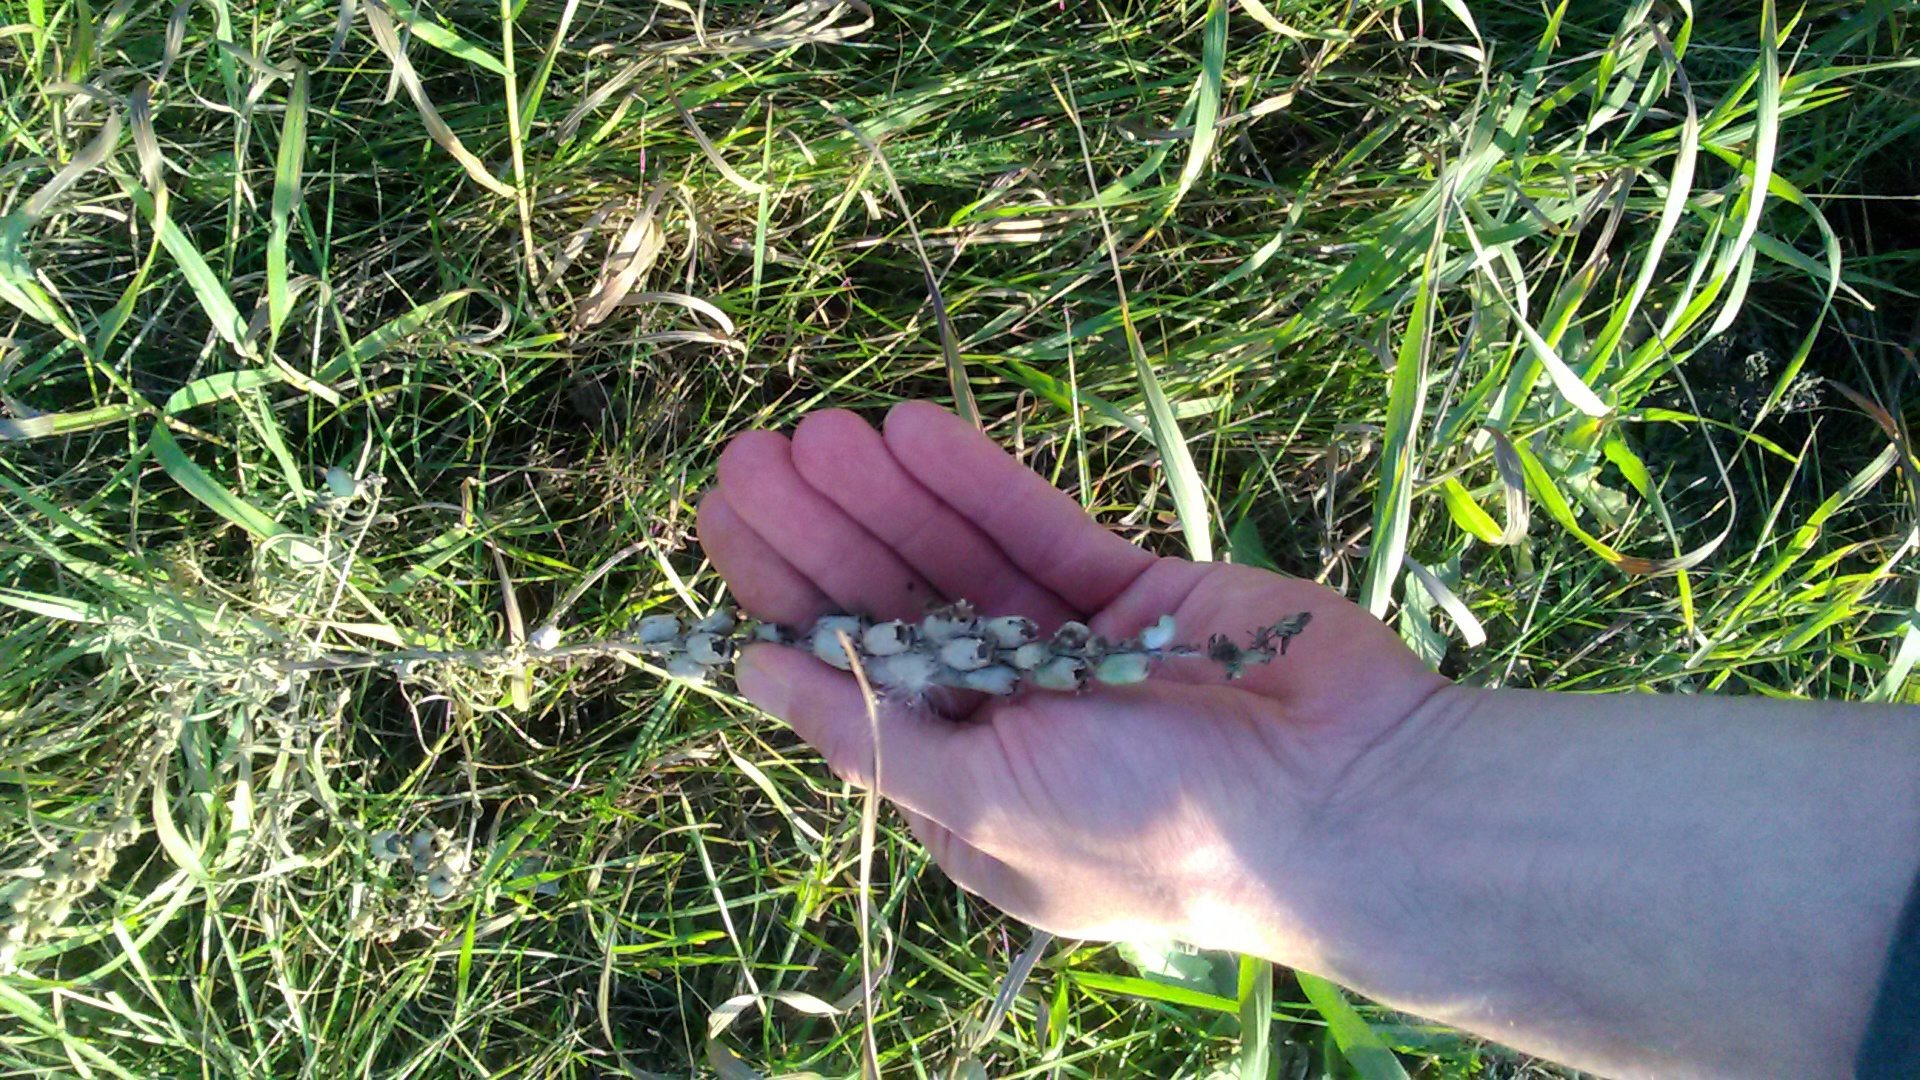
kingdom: Plantae
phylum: Tracheophyta
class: Magnoliopsida
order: Lamiales
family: Plantaginaceae
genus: Linaria
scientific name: Linaria vulgaris
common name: Butter and eggs
